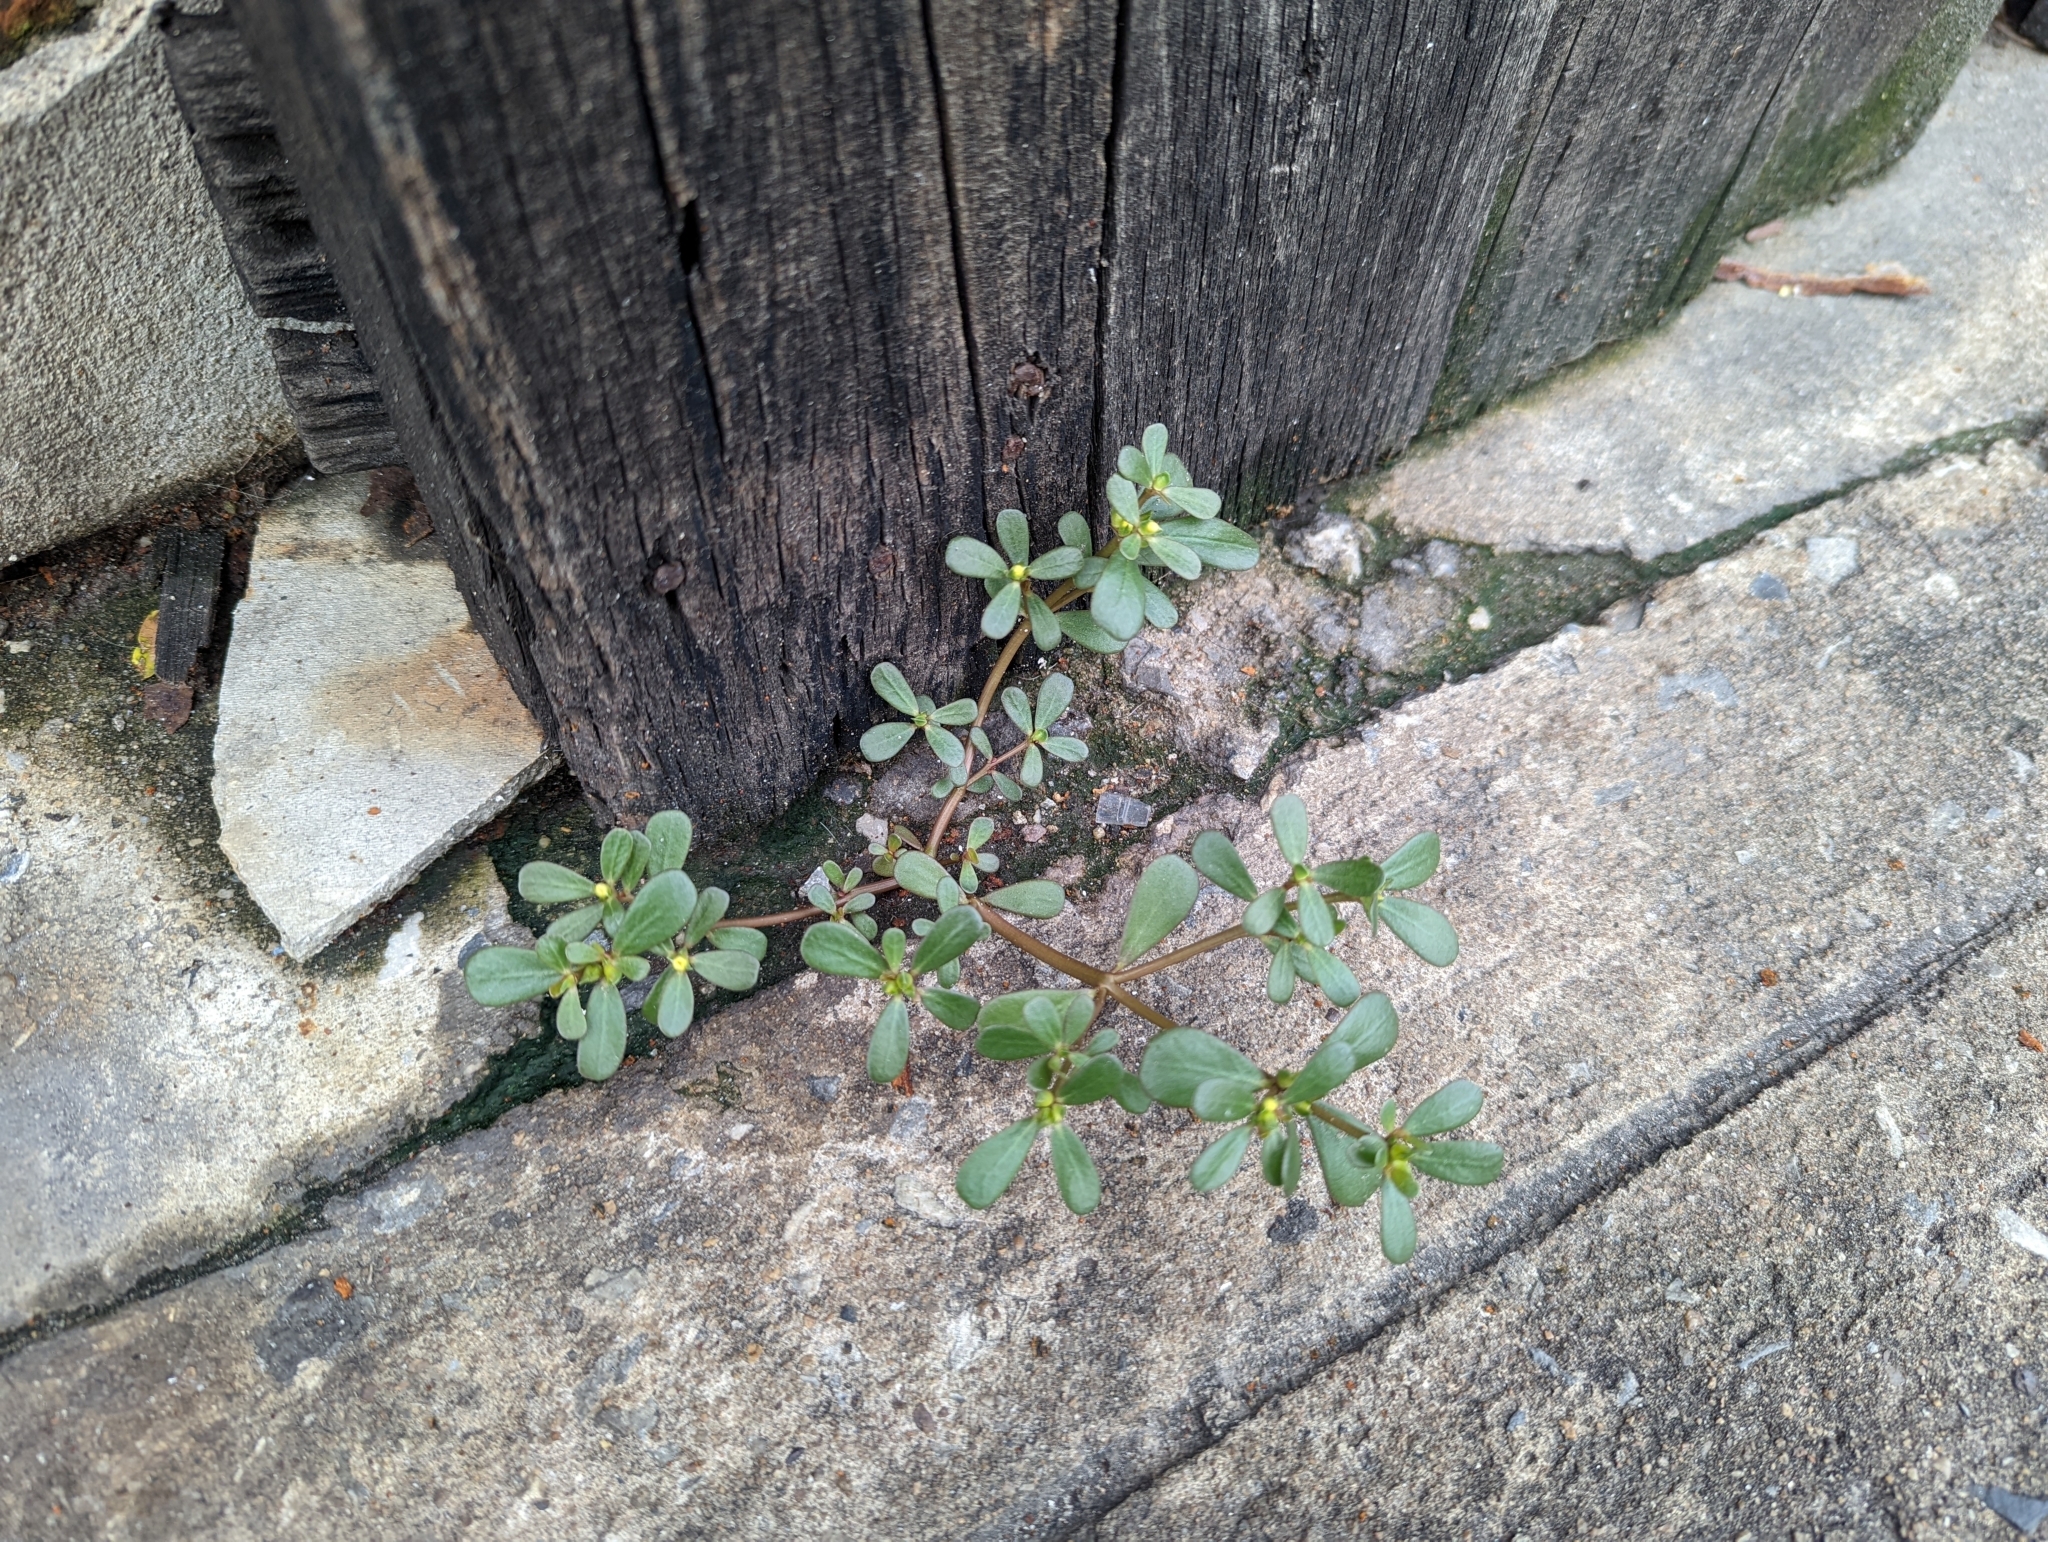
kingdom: Plantae
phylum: Tracheophyta
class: Magnoliopsida
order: Caryophyllales
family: Portulacaceae
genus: Portulaca
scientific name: Portulaca oleracea
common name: Common purslane
